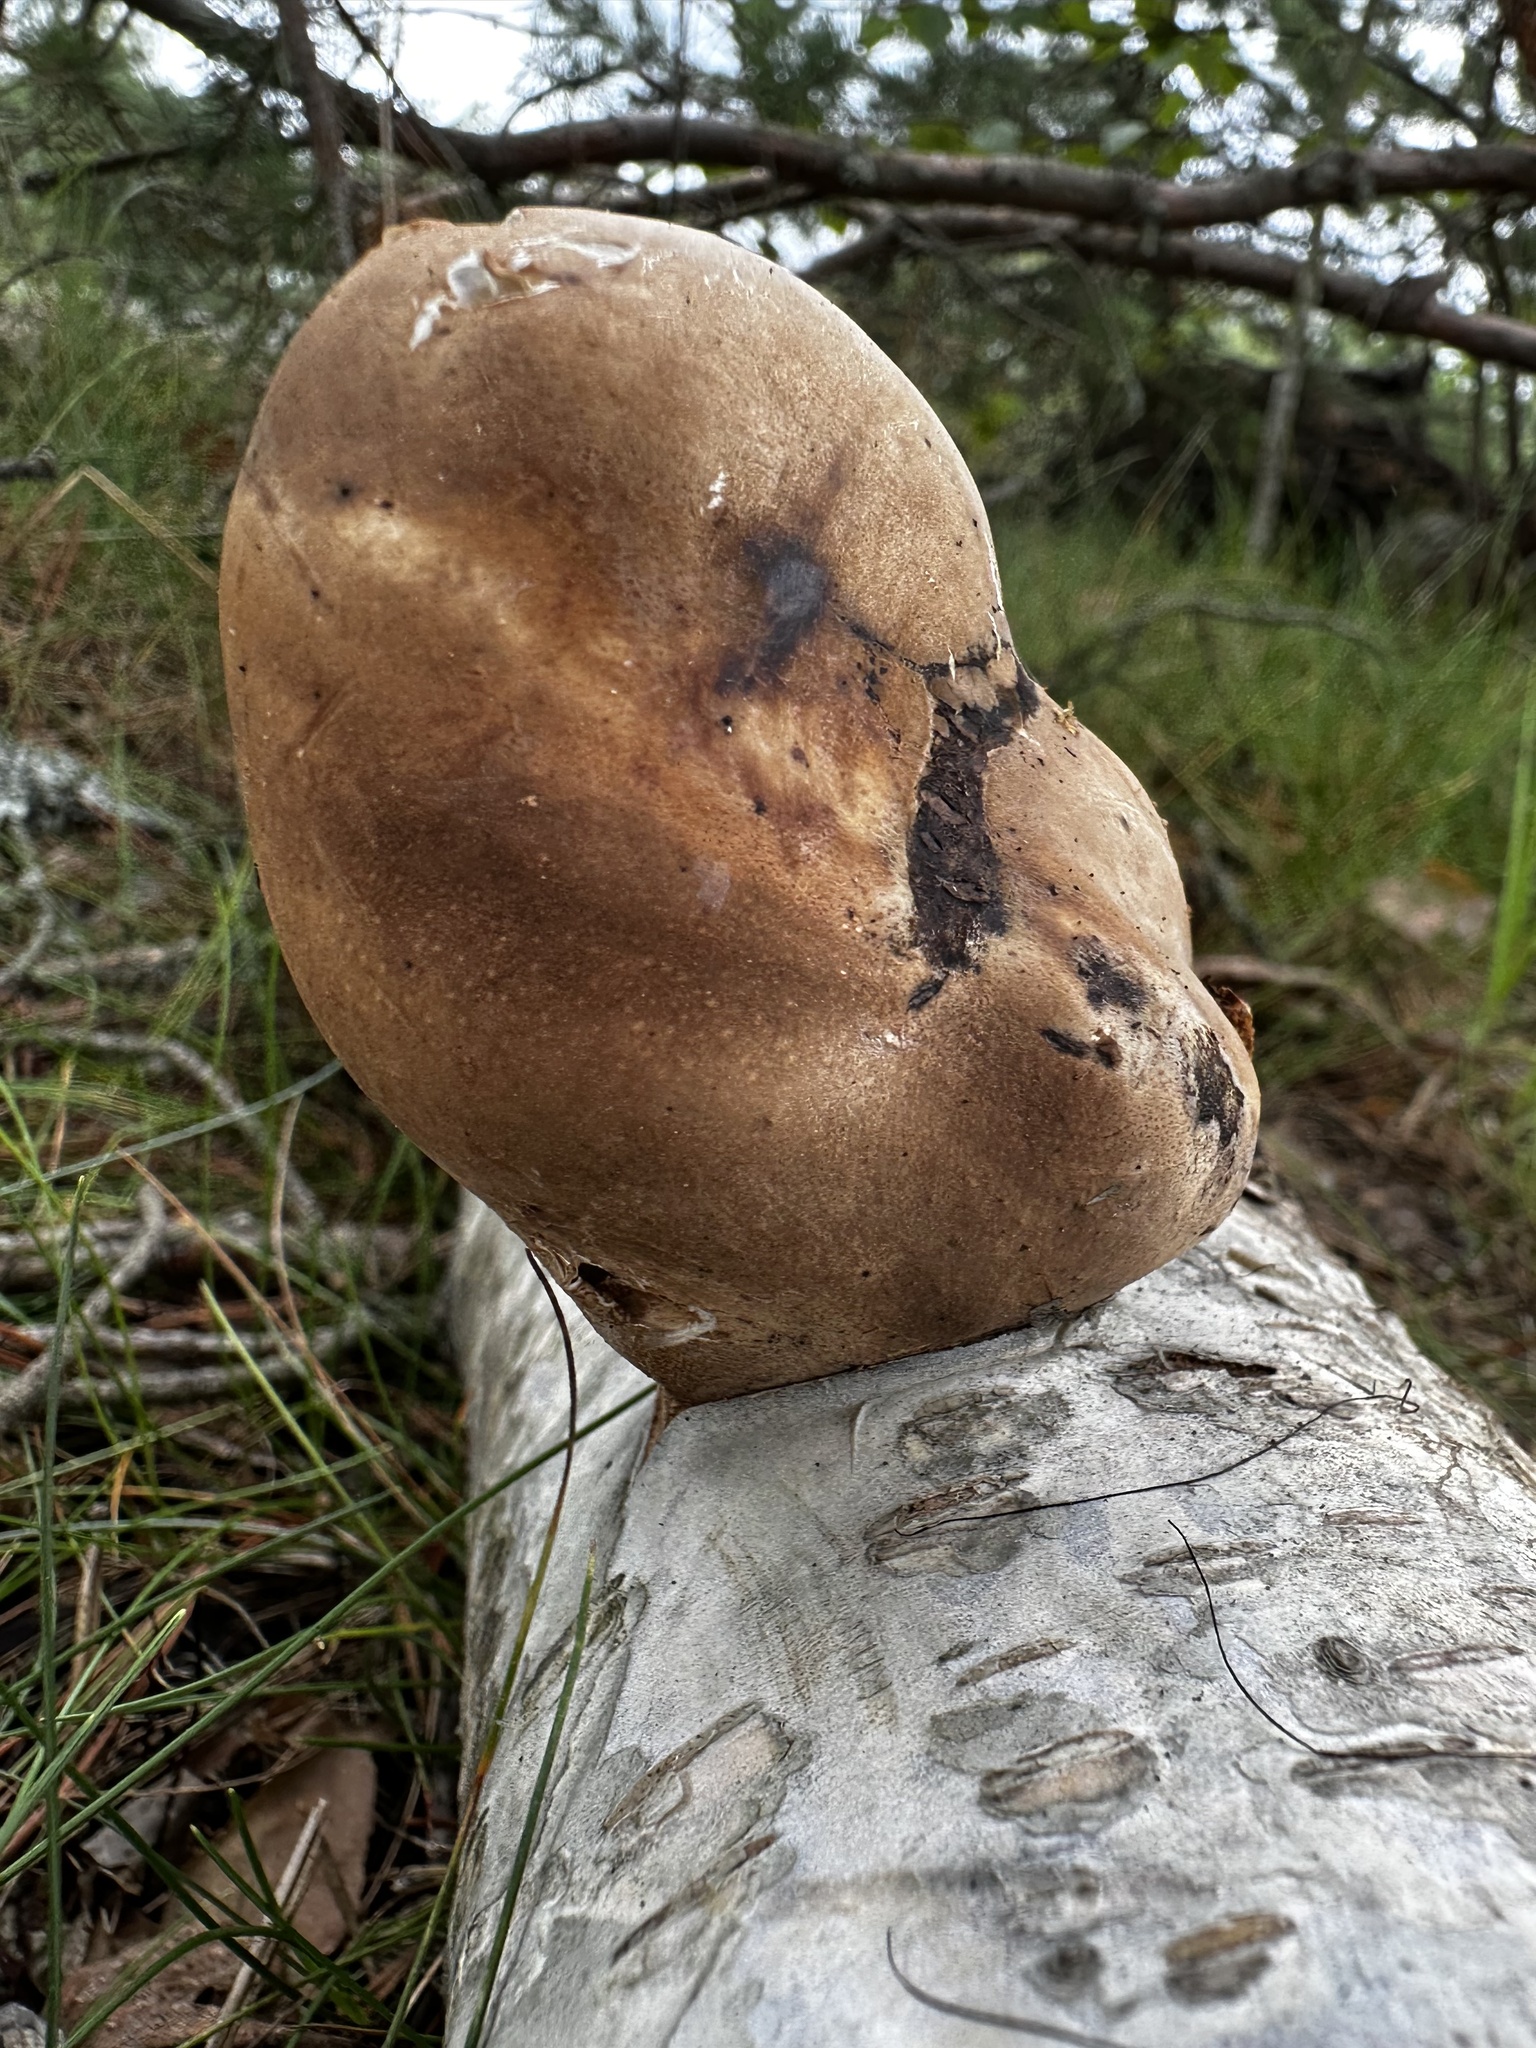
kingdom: Fungi
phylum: Basidiomycota
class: Agaricomycetes
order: Polyporales
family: Fomitopsidaceae
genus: Fomitopsis
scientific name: Fomitopsis betulina
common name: Birch polypore
